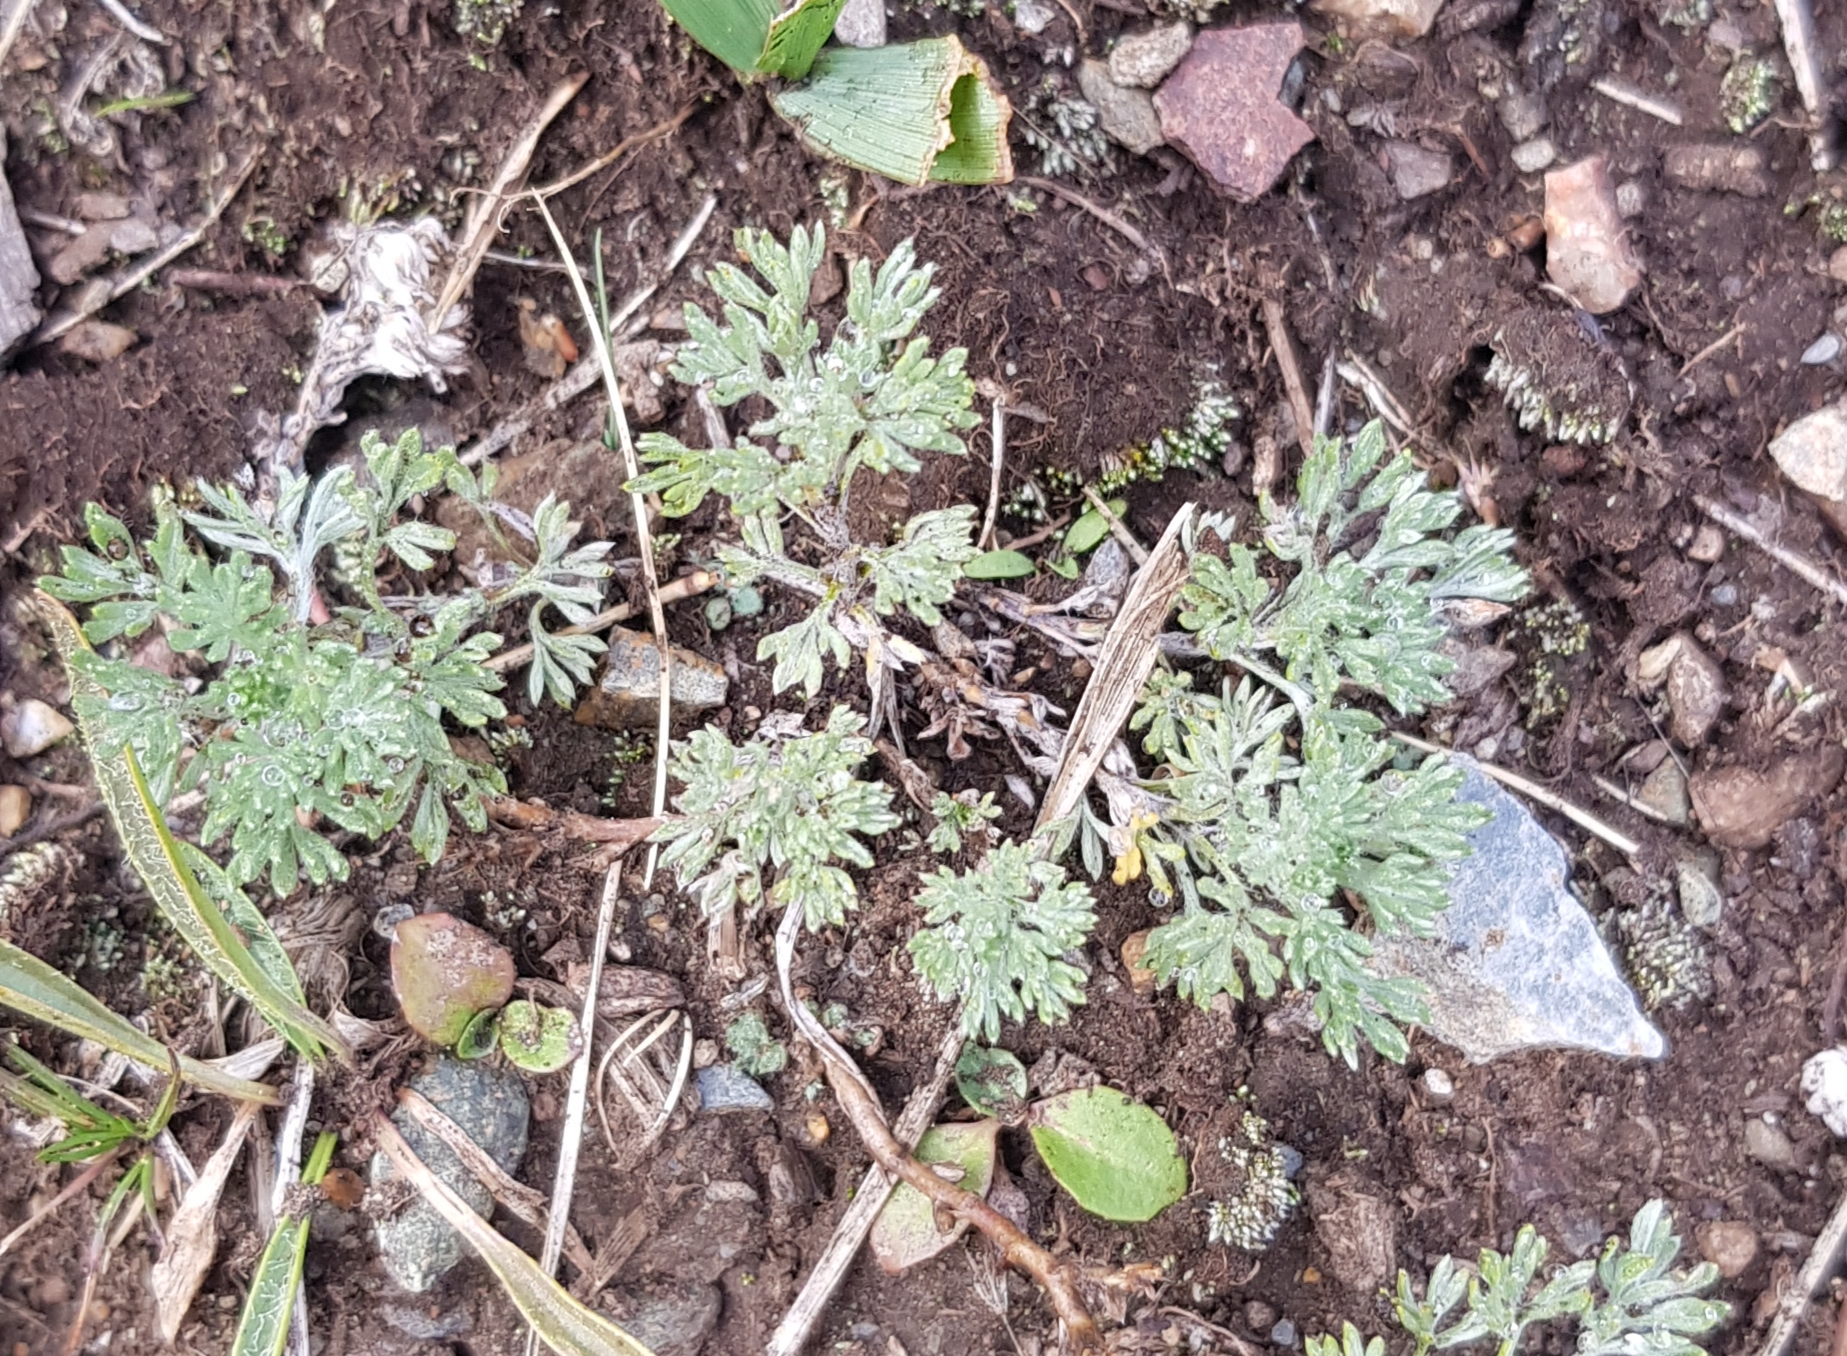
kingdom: Plantae
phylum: Tracheophyta
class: Magnoliopsida
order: Asterales
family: Asteraceae
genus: Artemisia
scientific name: Artemisia frigida
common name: Prairie sagewort
